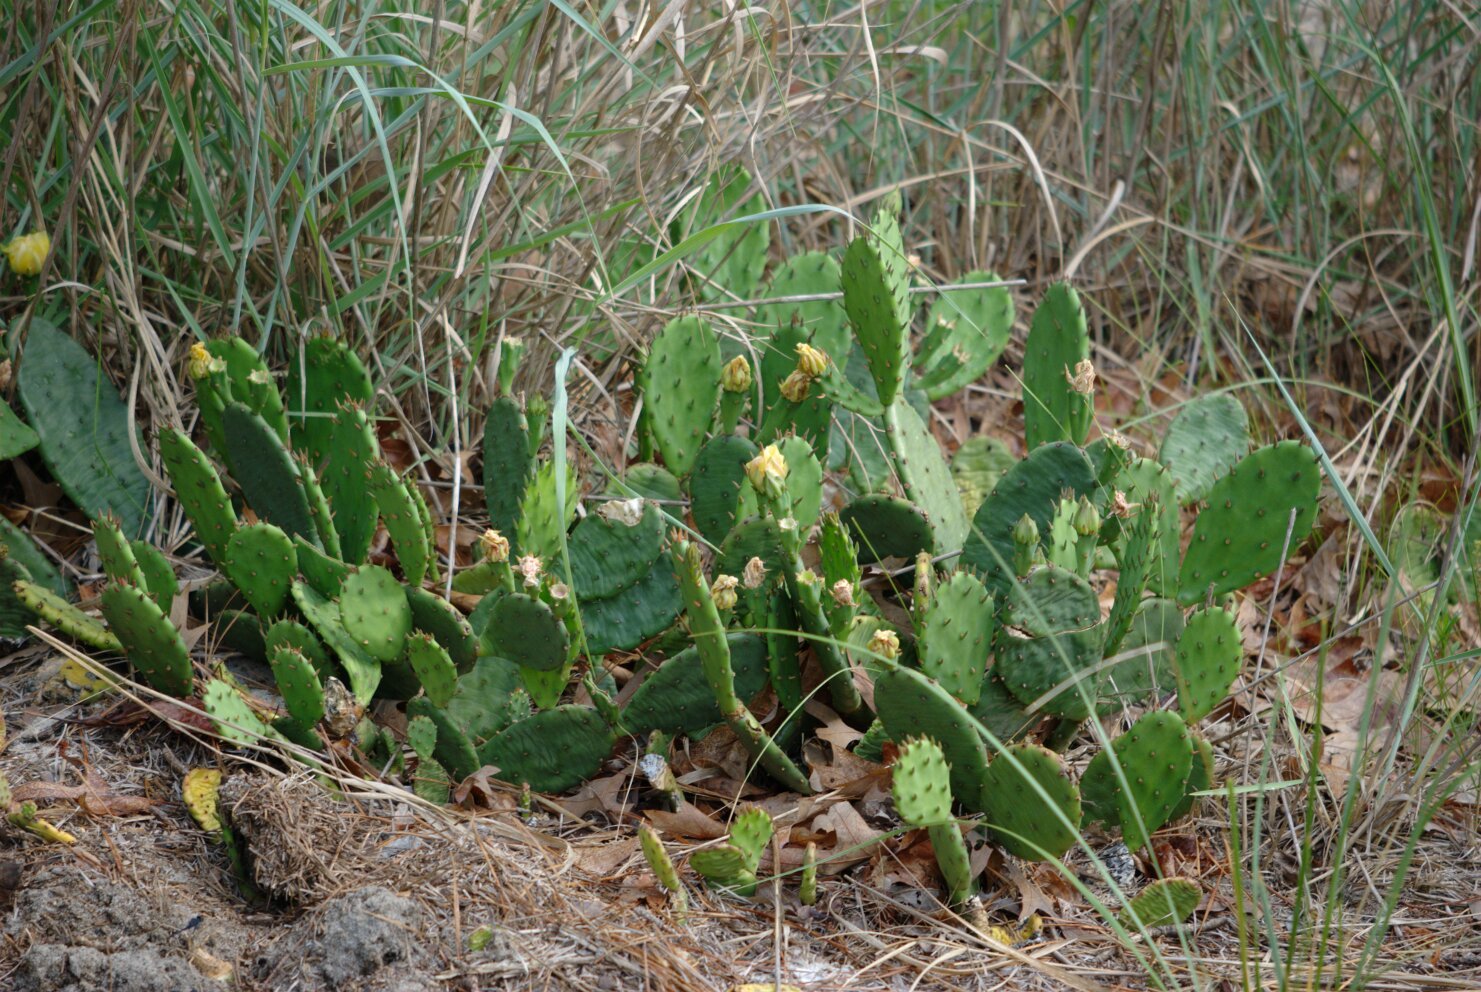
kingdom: Plantae
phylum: Tracheophyta
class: Magnoliopsida
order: Caryophyllales
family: Cactaceae
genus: Opuntia
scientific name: Opuntia humifusa
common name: Eastern prickly-pear
